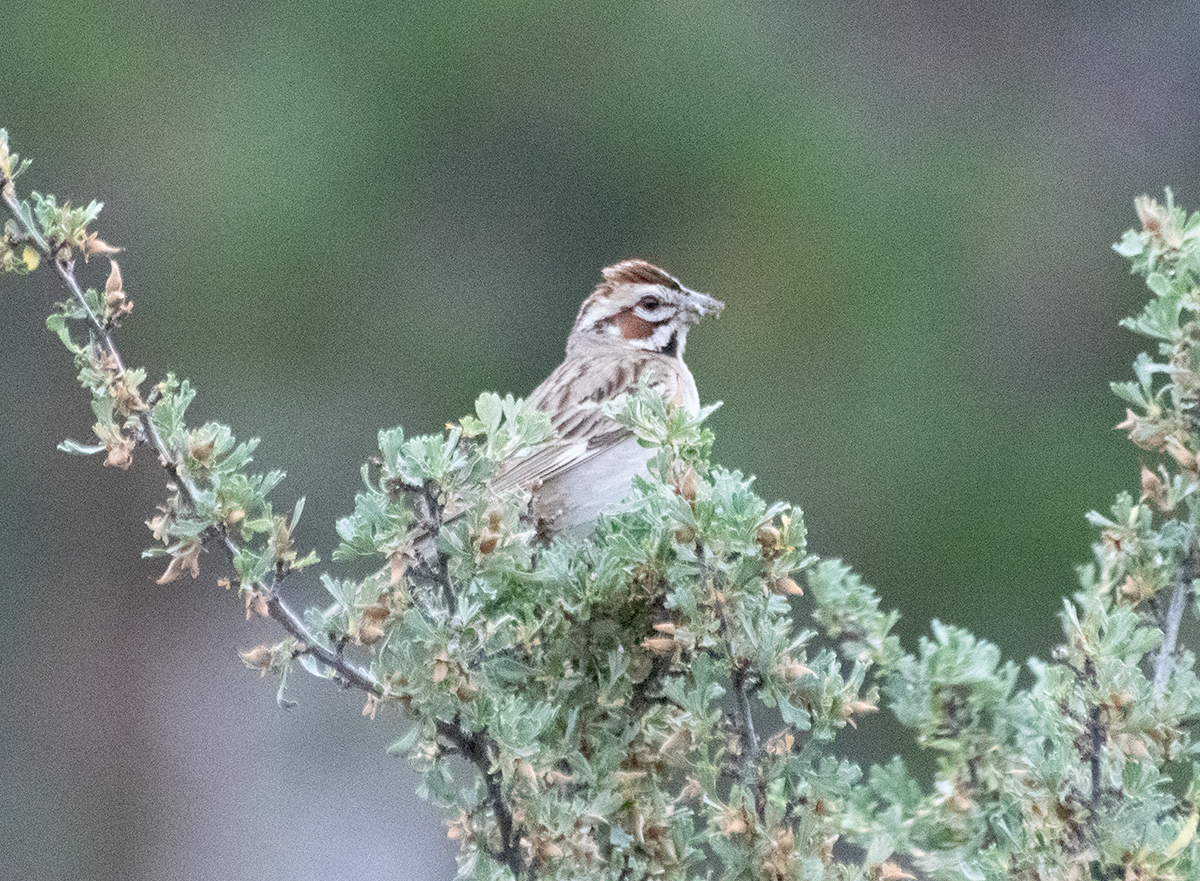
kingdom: Animalia
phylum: Chordata
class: Aves
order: Passeriformes
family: Passerellidae
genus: Chondestes
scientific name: Chondestes grammacus
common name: Lark sparrow
